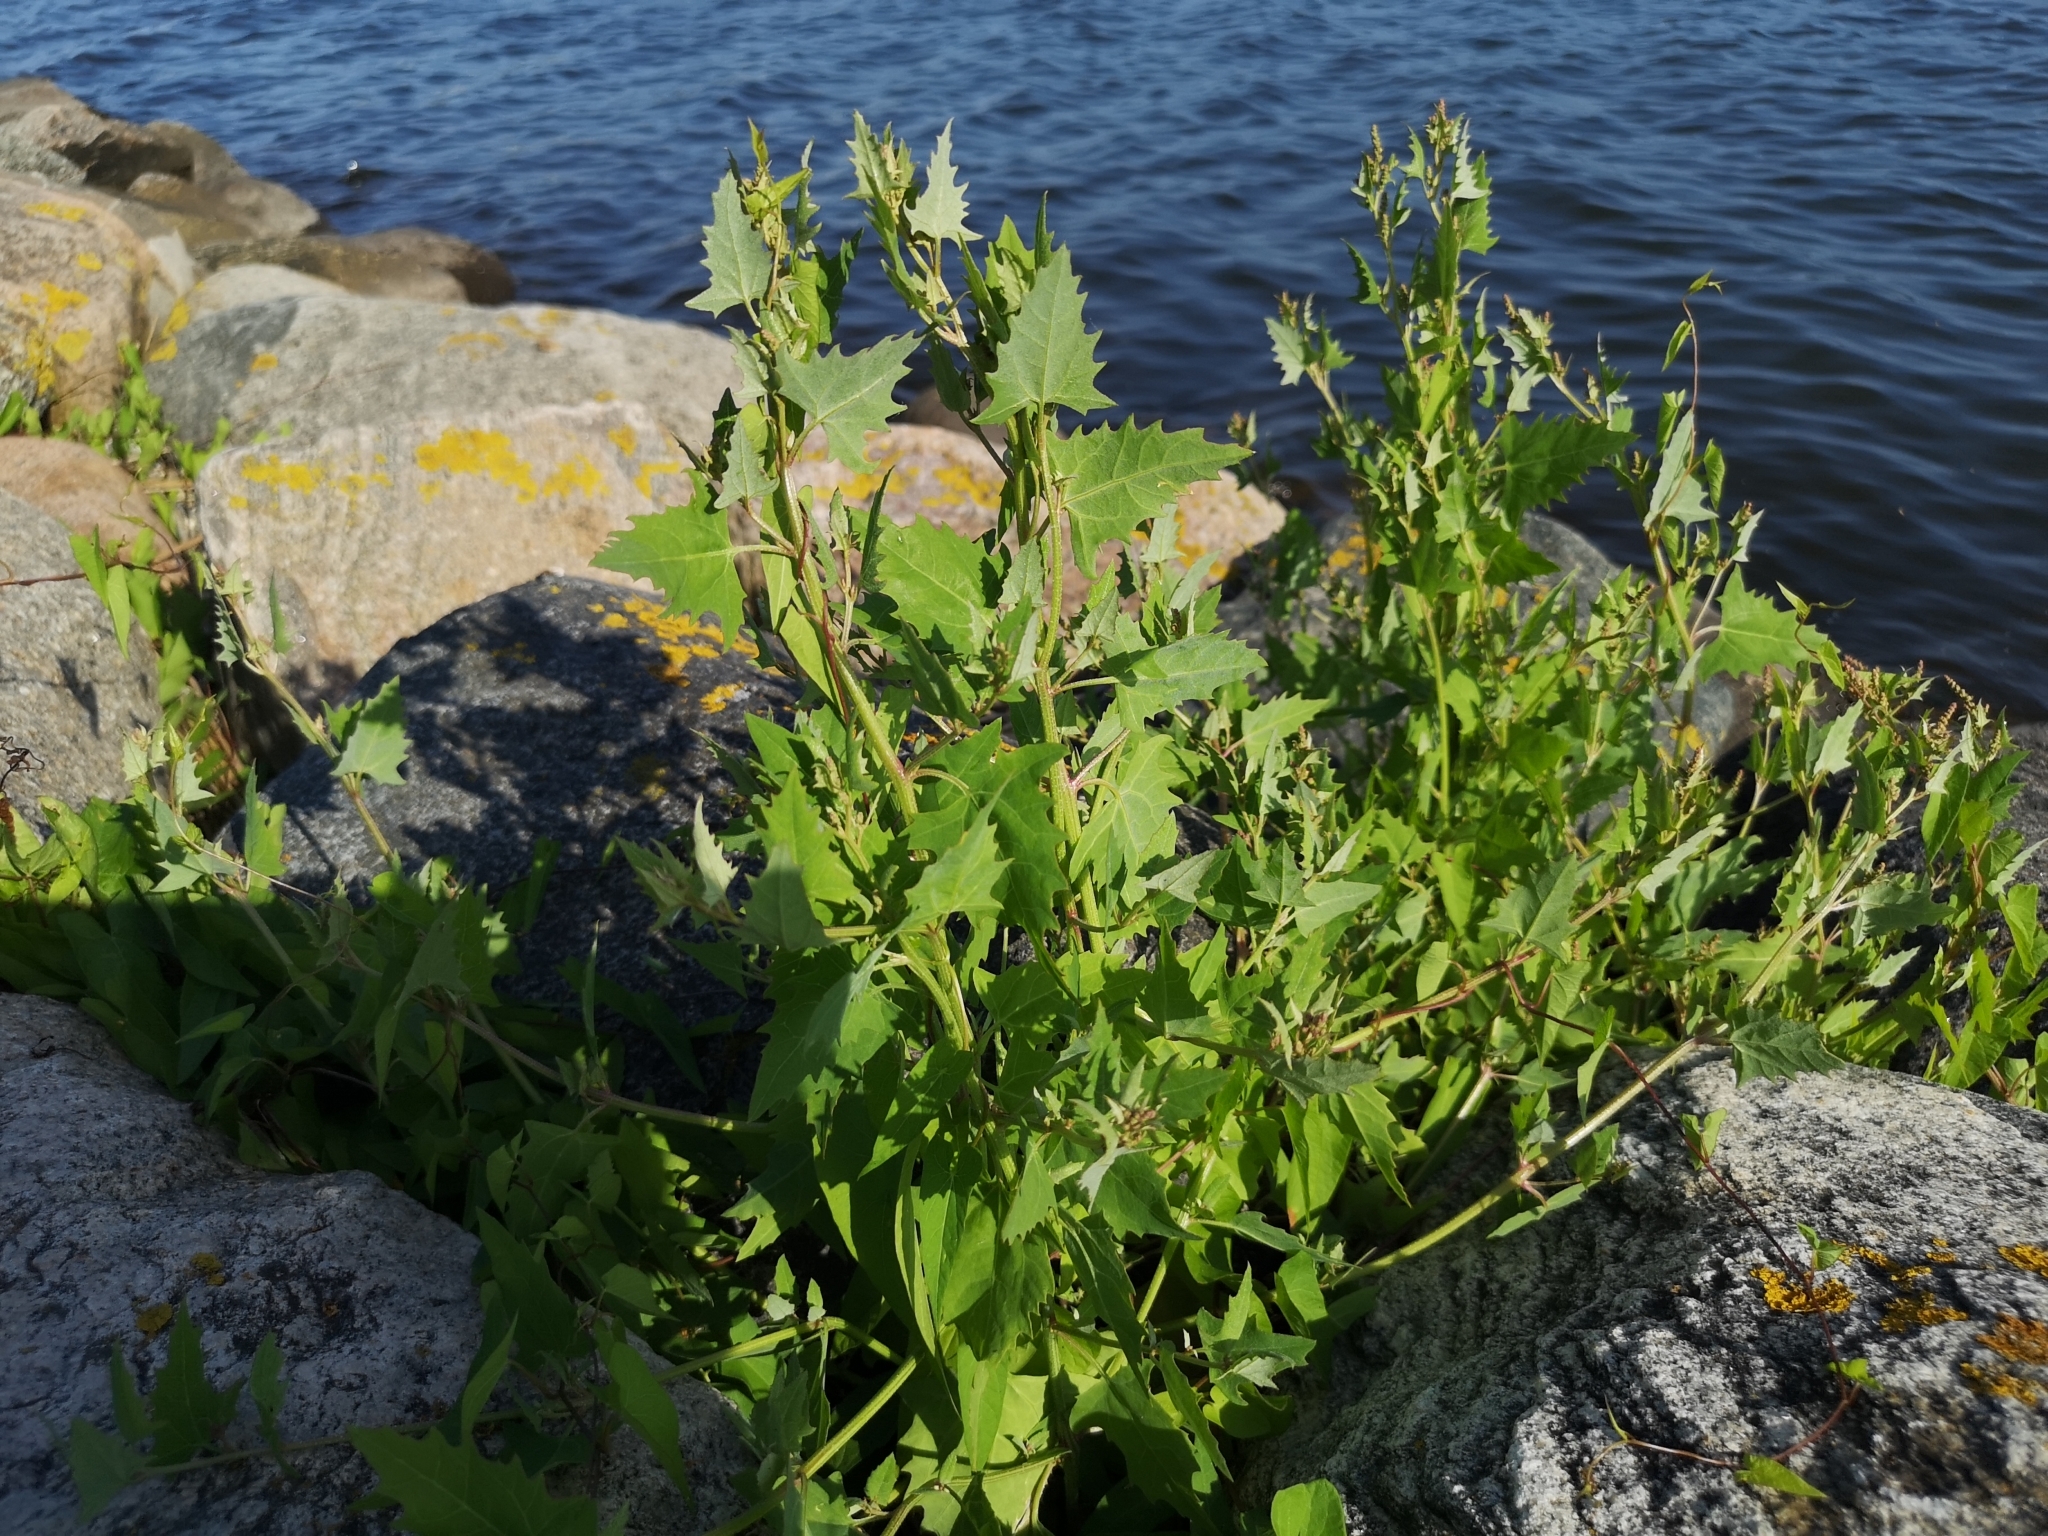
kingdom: Plantae
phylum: Tracheophyta
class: Magnoliopsida
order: Caryophyllales
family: Amaranthaceae
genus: Atriplex
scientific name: Atriplex prostrata
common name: Spear-leaved orache
